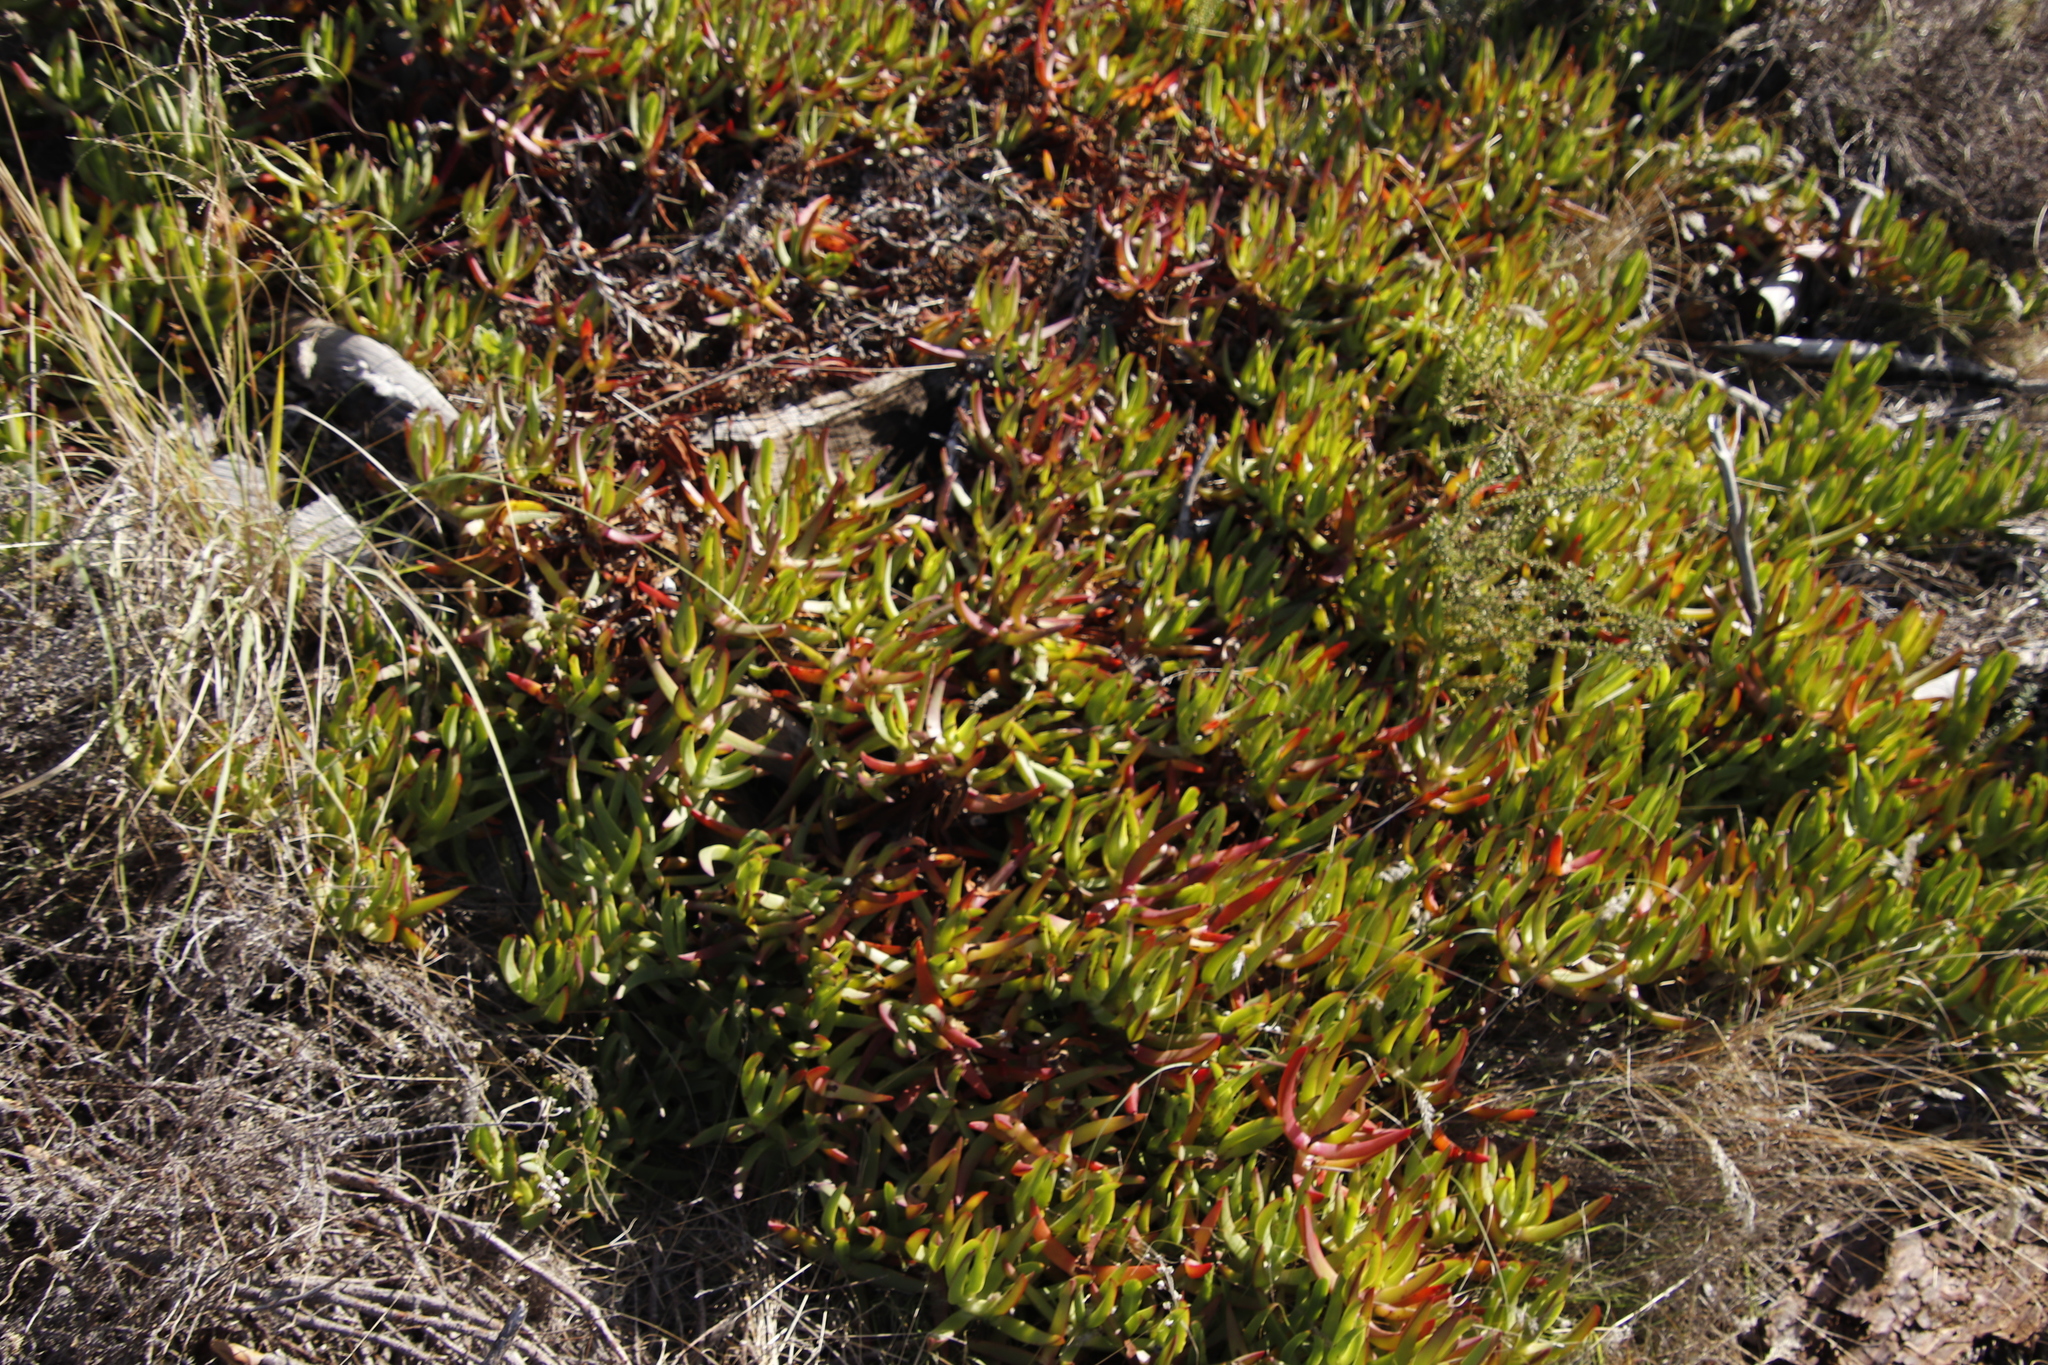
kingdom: Plantae
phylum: Tracheophyta
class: Magnoliopsida
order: Caryophyllales
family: Aizoaceae
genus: Carpobrotus
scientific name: Carpobrotus edulis
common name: Hottentot-fig
